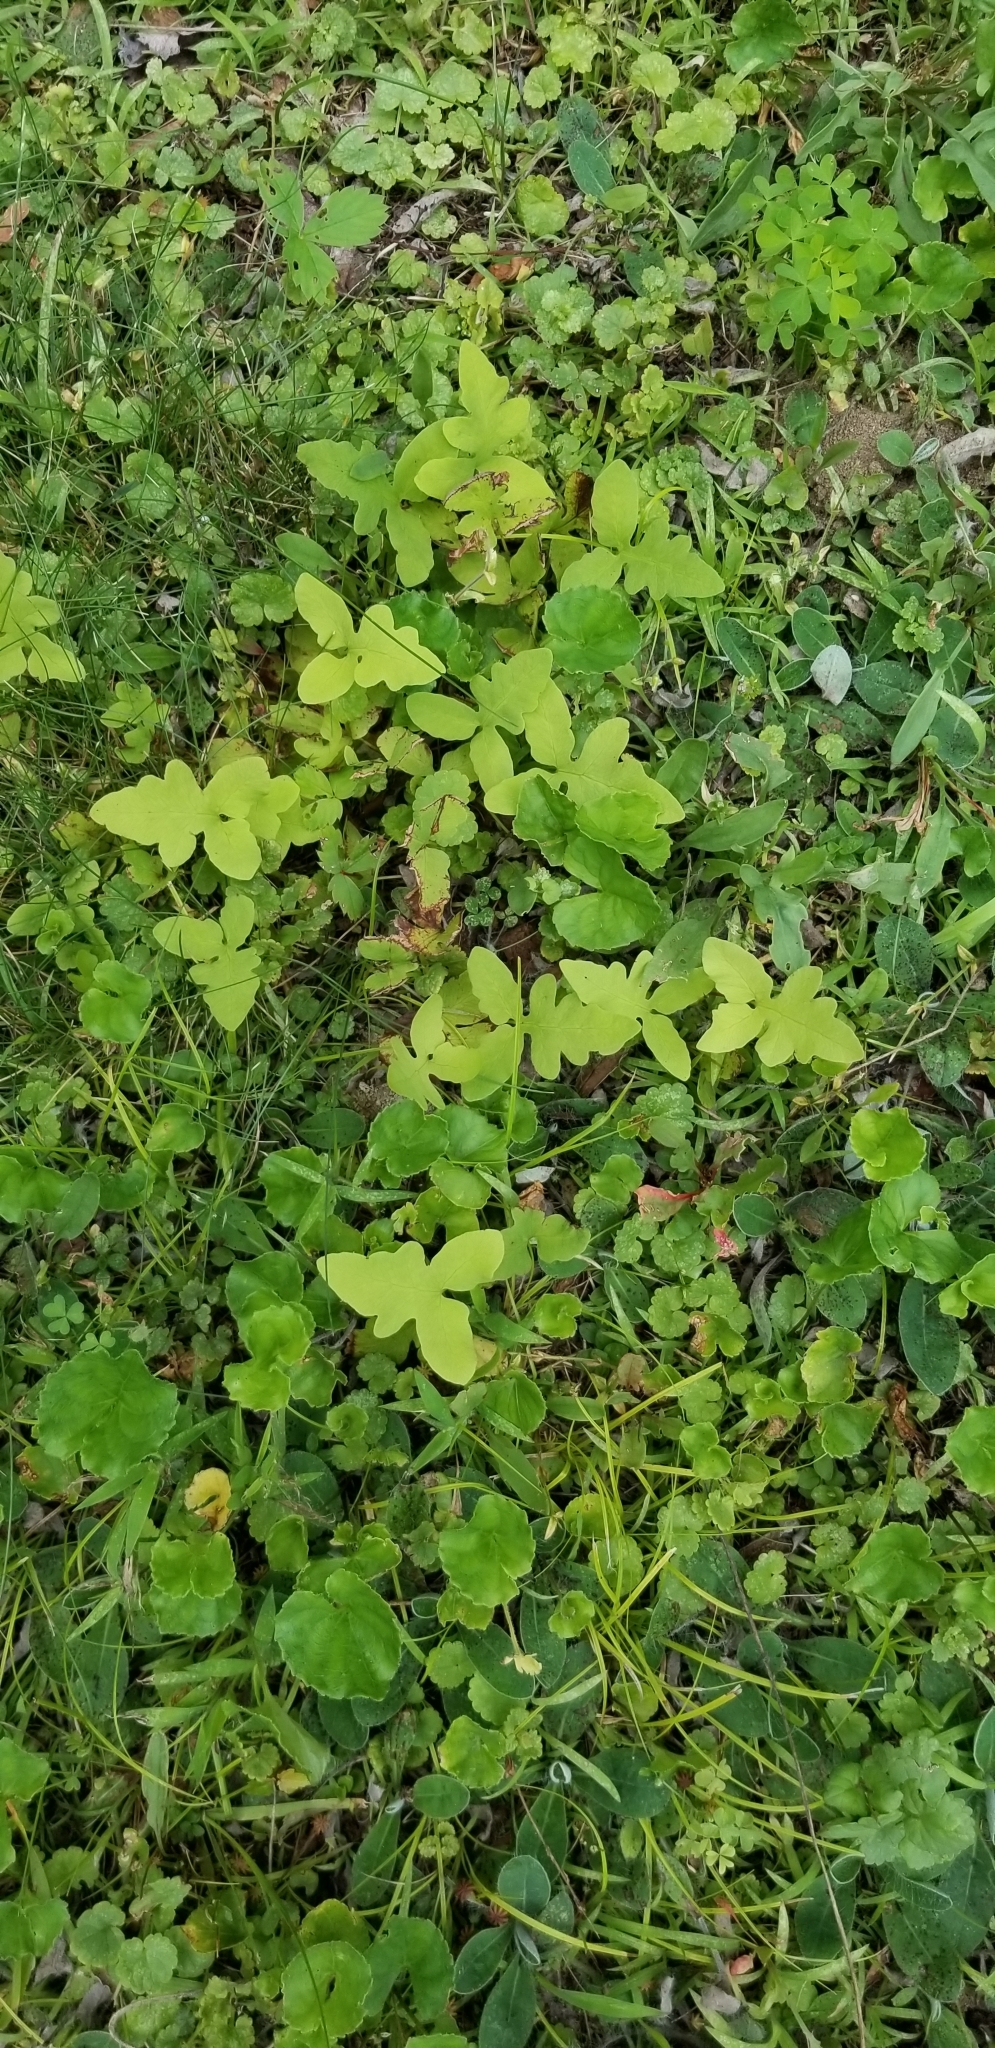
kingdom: Plantae
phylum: Tracheophyta
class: Polypodiopsida
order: Polypodiales
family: Onocleaceae
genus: Onoclea
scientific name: Onoclea sensibilis
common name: Sensitive fern
